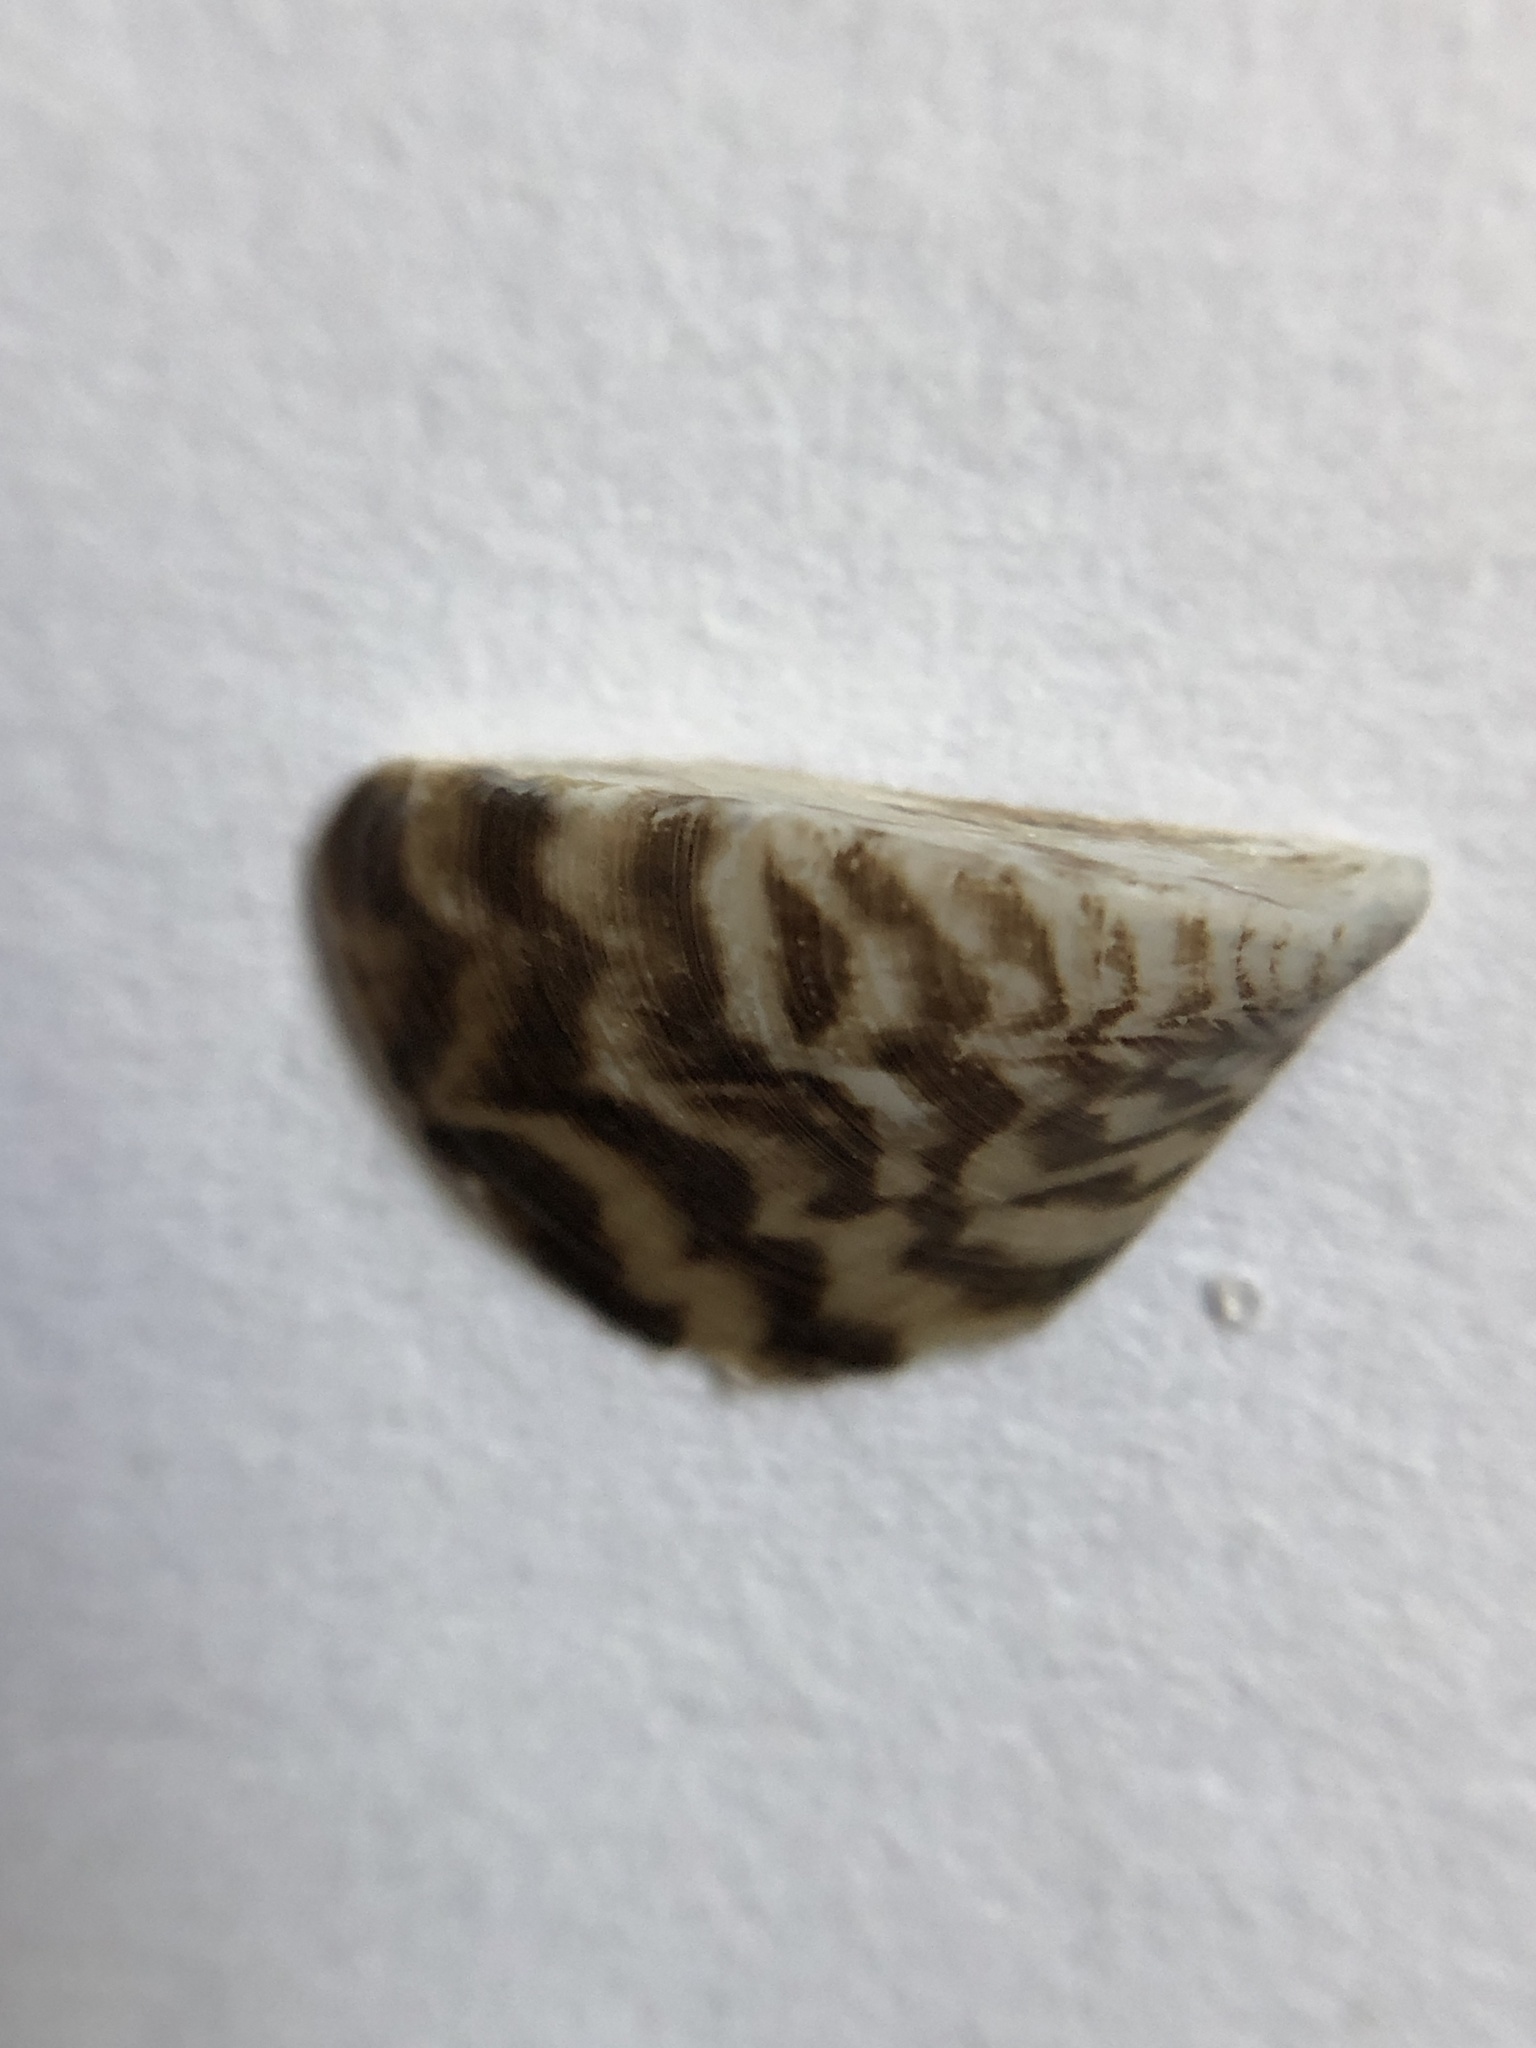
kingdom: Animalia
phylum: Mollusca
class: Bivalvia
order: Myida
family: Dreissenidae
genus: Dreissena
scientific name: Dreissena polymorpha
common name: Zebra mussel
